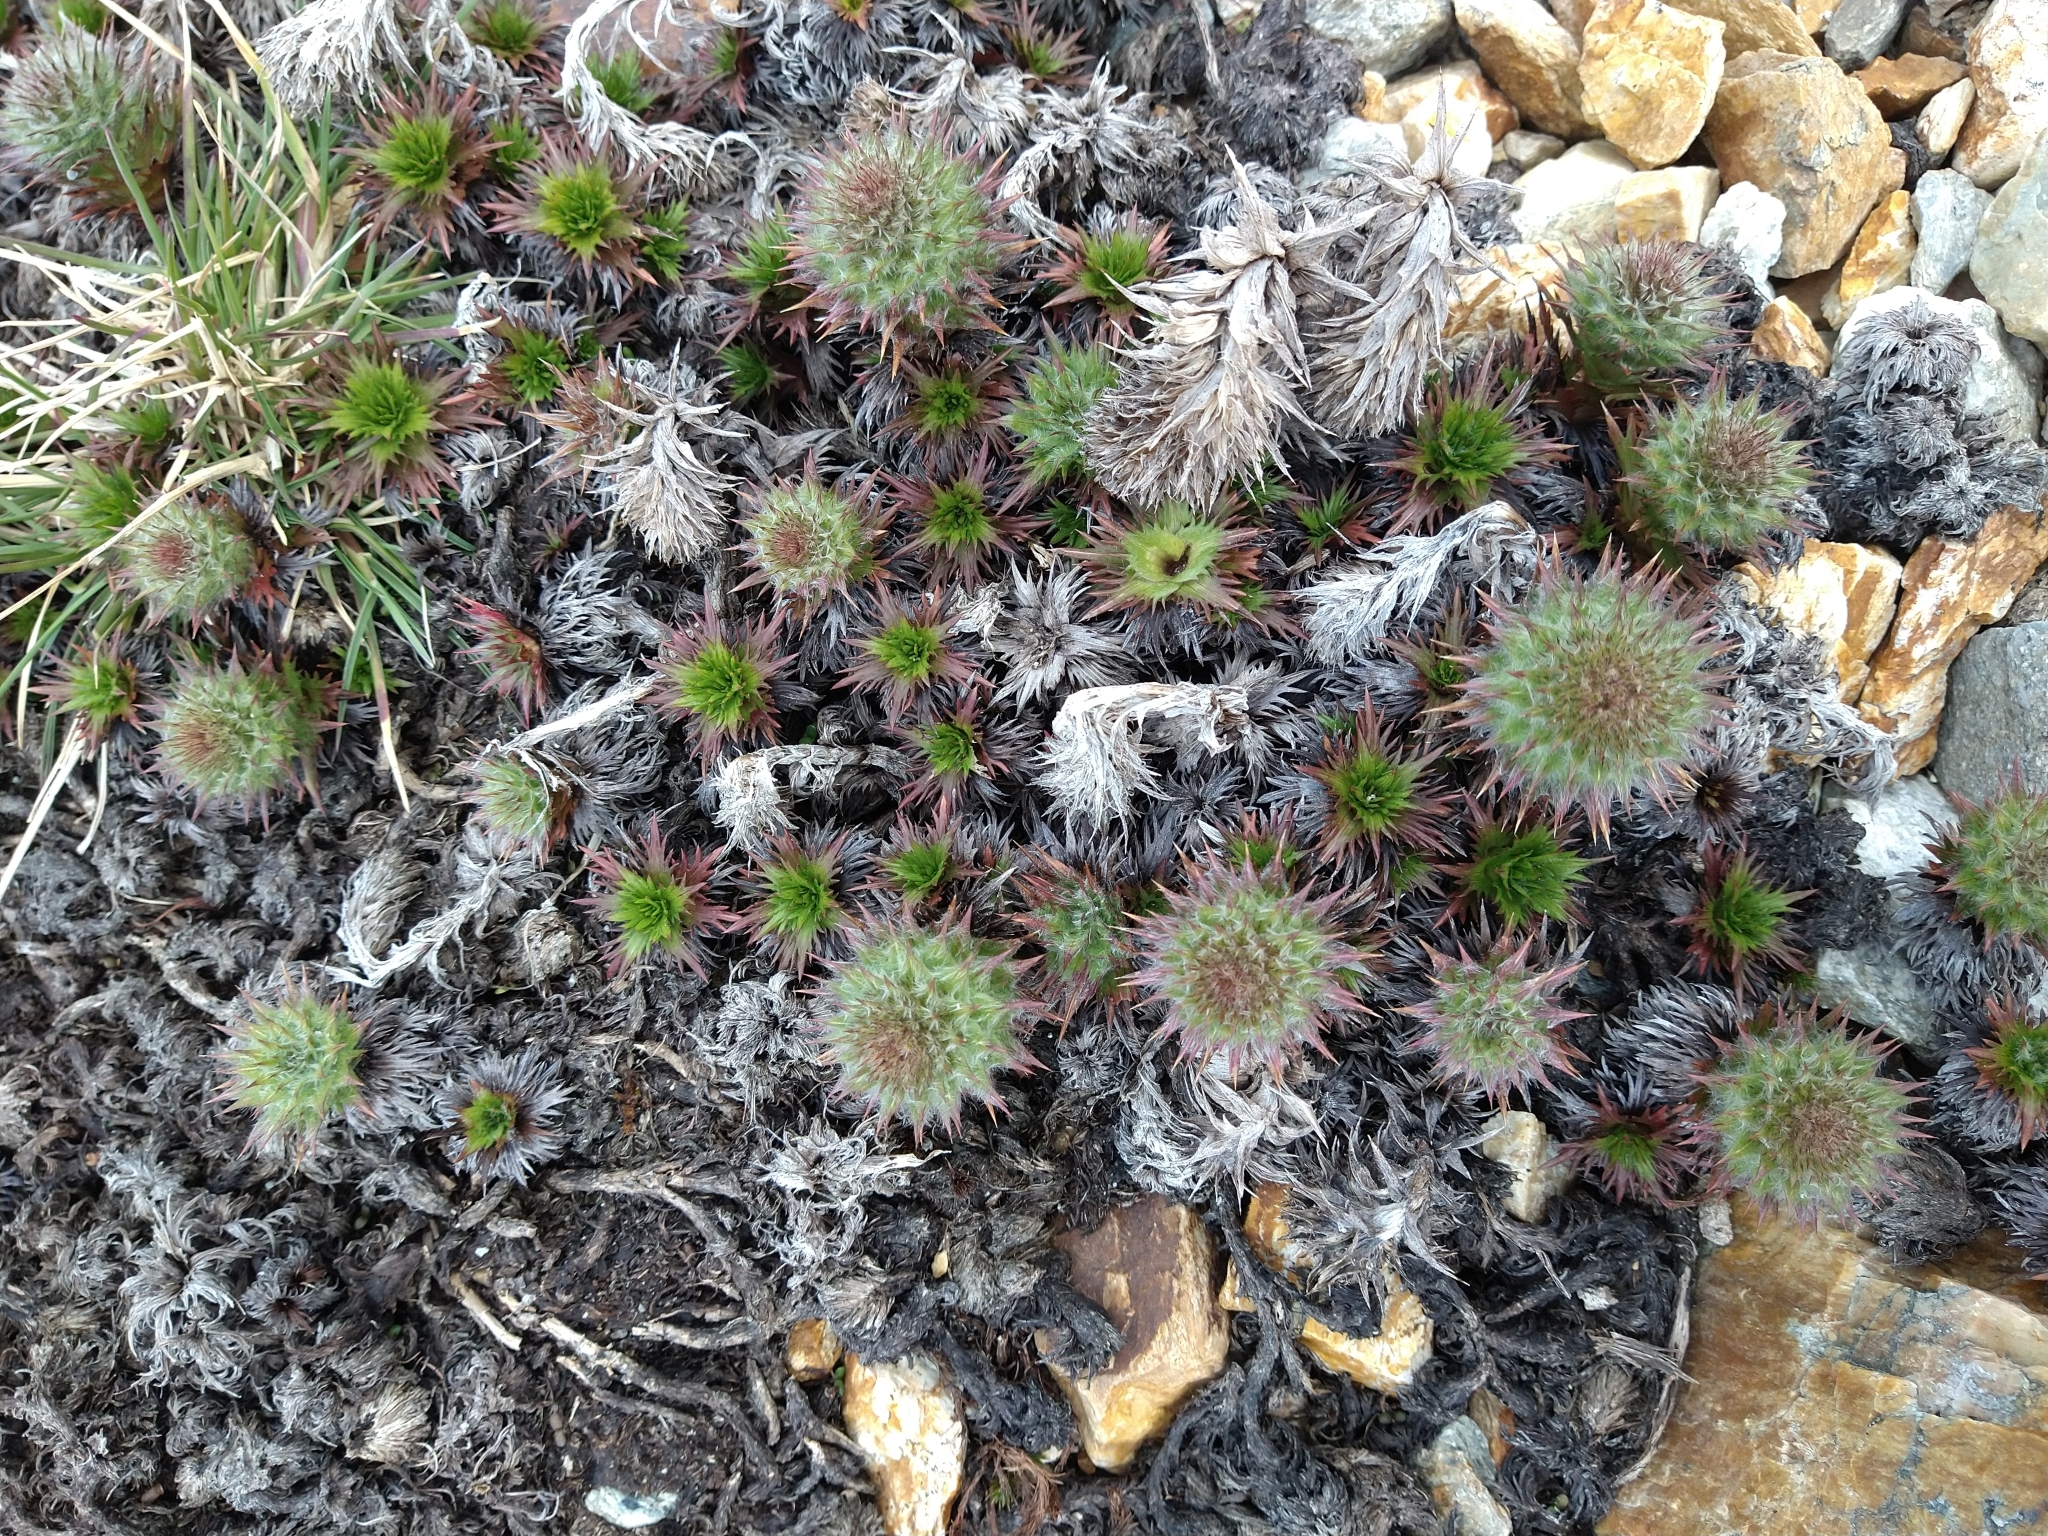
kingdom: Plantae
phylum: Tracheophyta
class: Magnoliopsida
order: Asterales
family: Asteraceae
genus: Nassauvia
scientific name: Nassauvia magellanica
